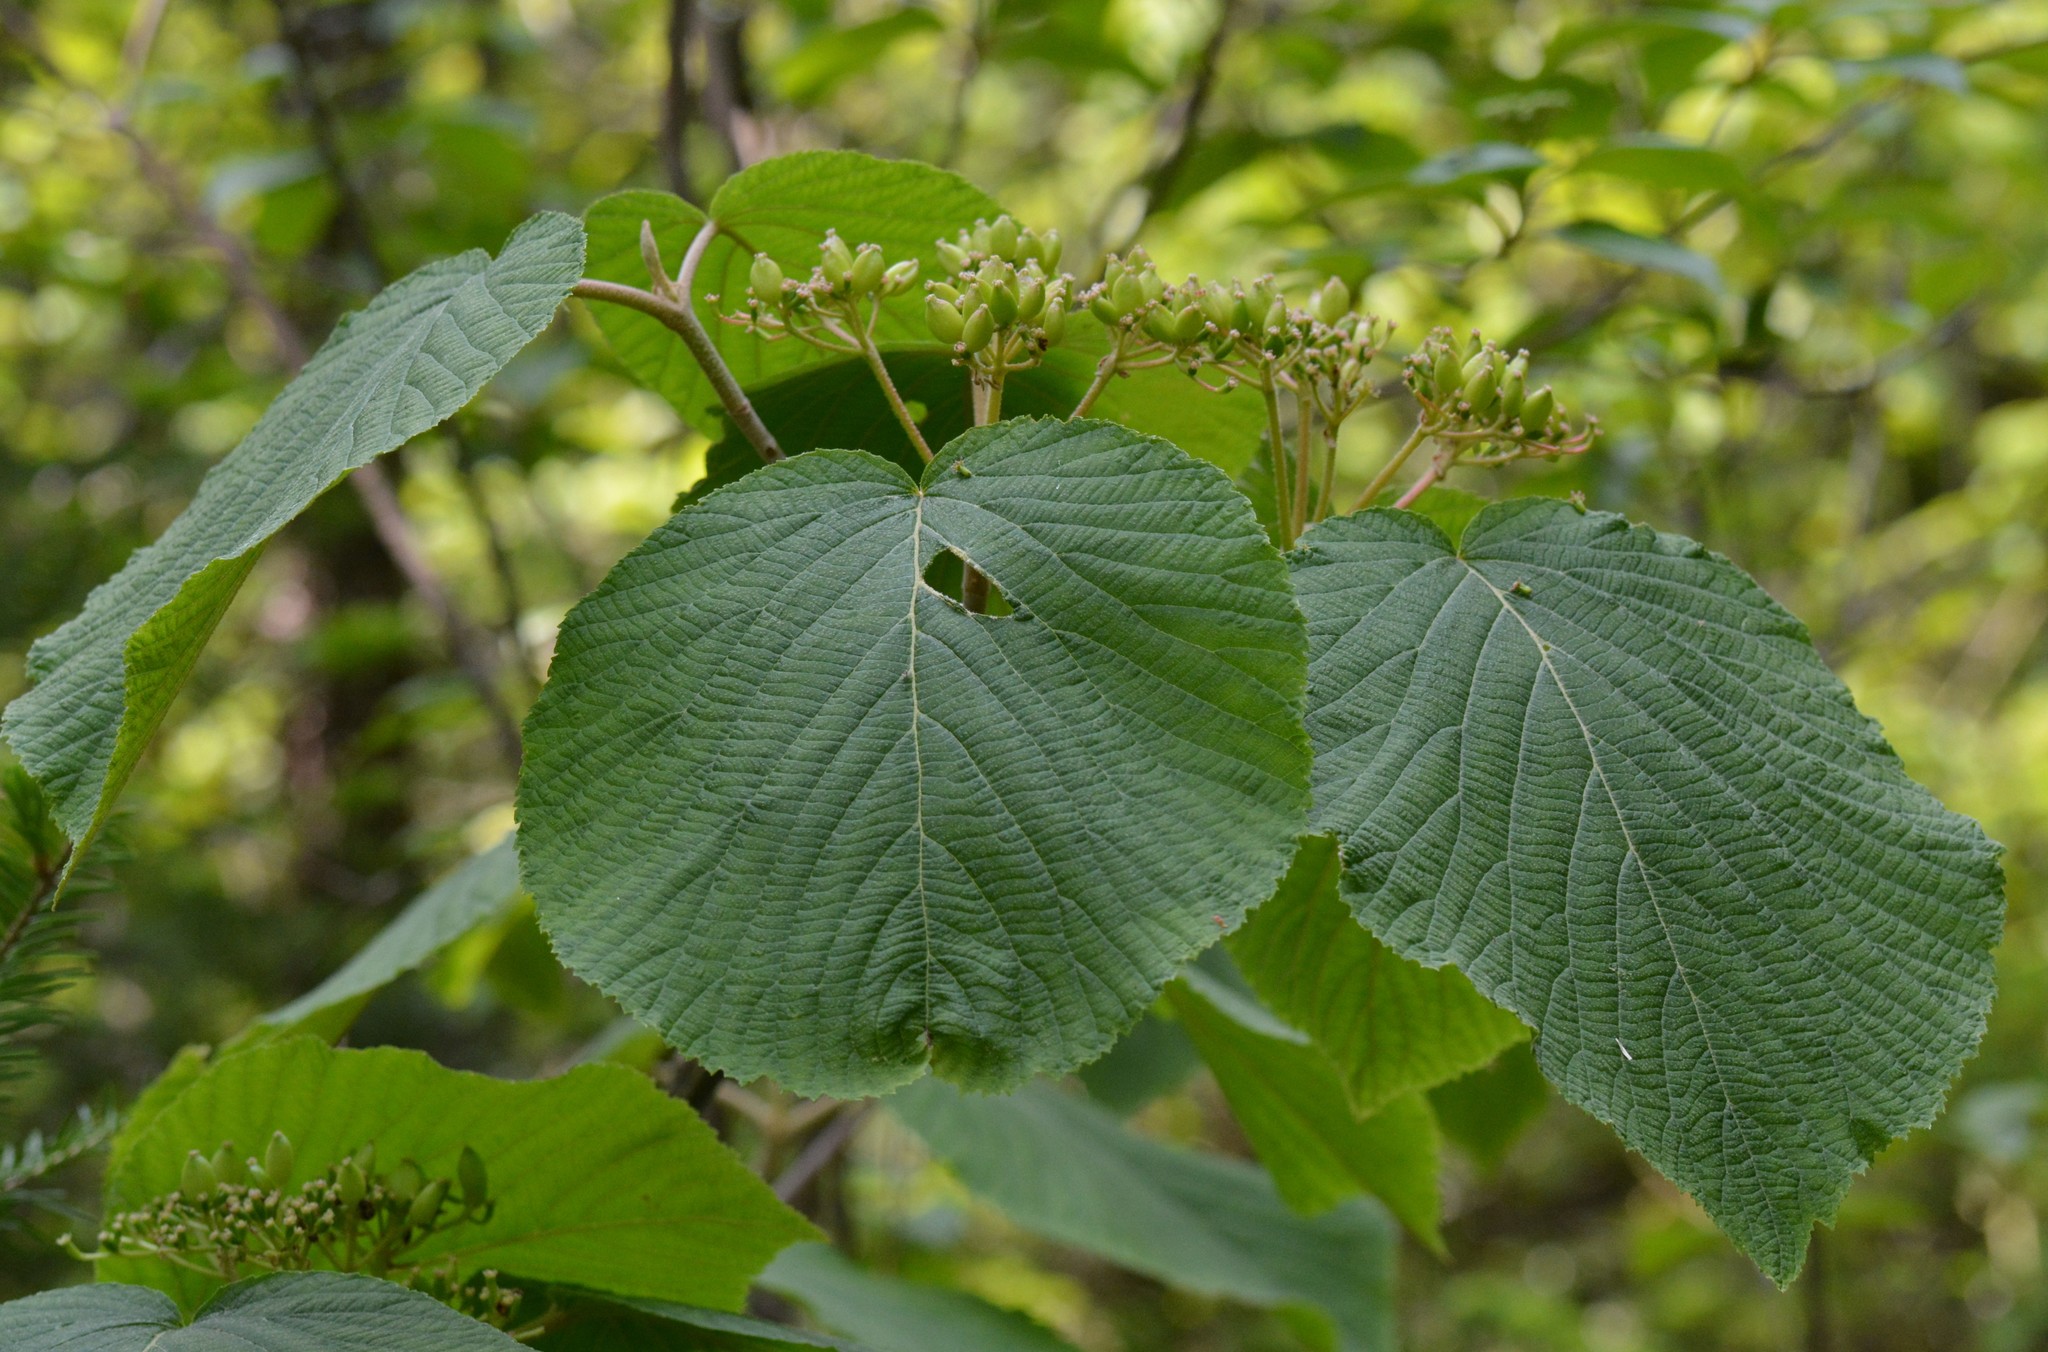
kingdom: Plantae
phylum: Tracheophyta
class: Magnoliopsida
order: Dipsacales
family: Viburnaceae
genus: Viburnum
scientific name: Viburnum lantanoides
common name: Hobblebush
